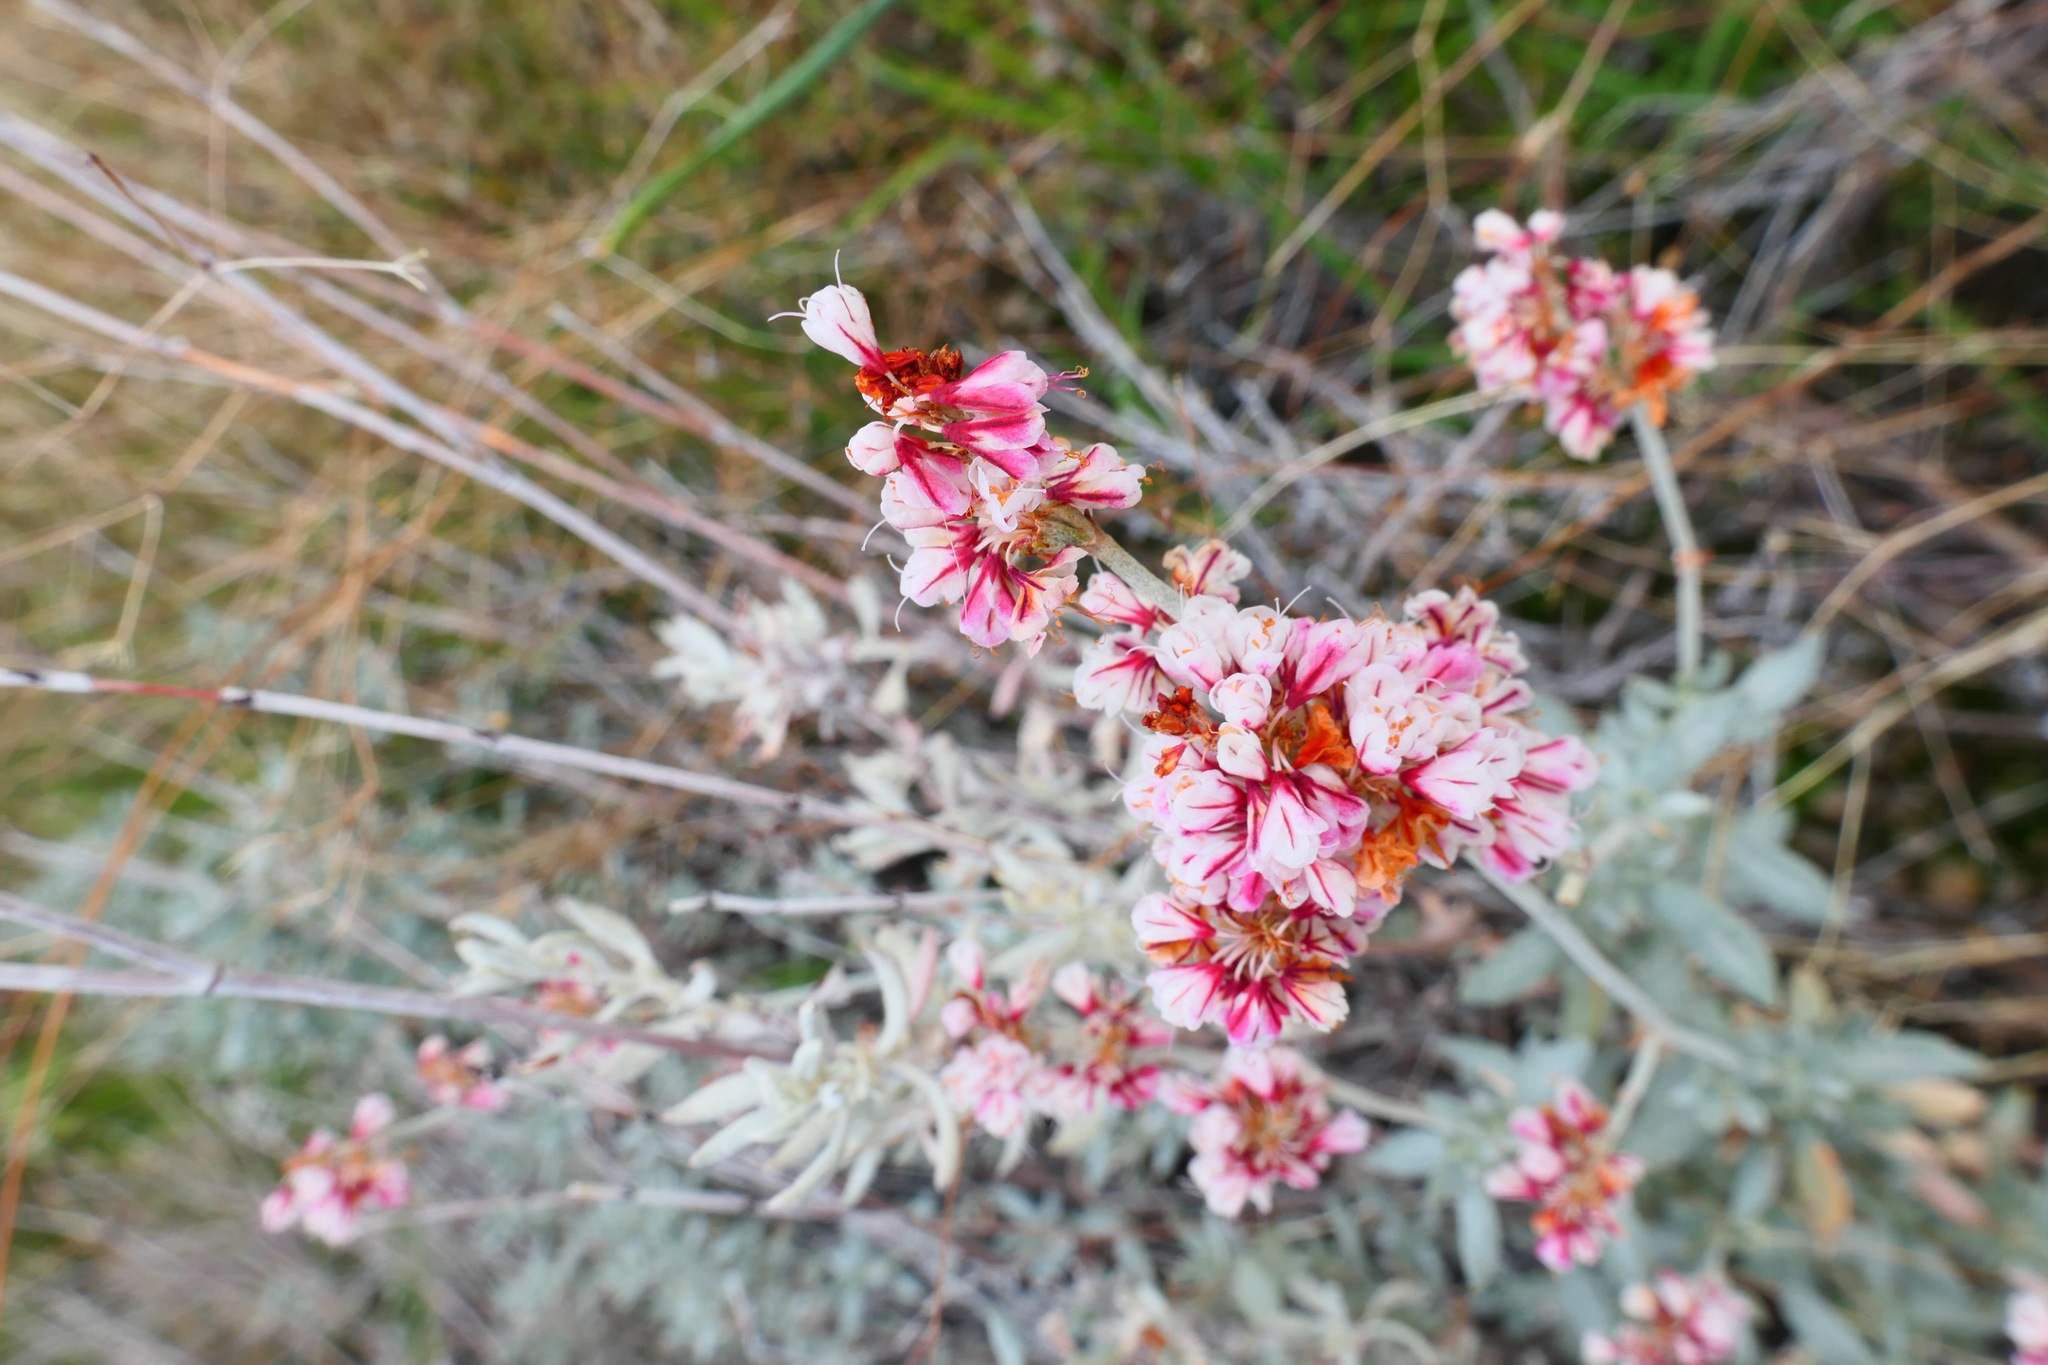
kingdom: Plantae
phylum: Tracheophyta
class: Magnoliopsida
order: Caryophyllales
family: Polygonaceae
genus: Eriogonum
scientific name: Eriogonum wrightii
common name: Bastard-sage
